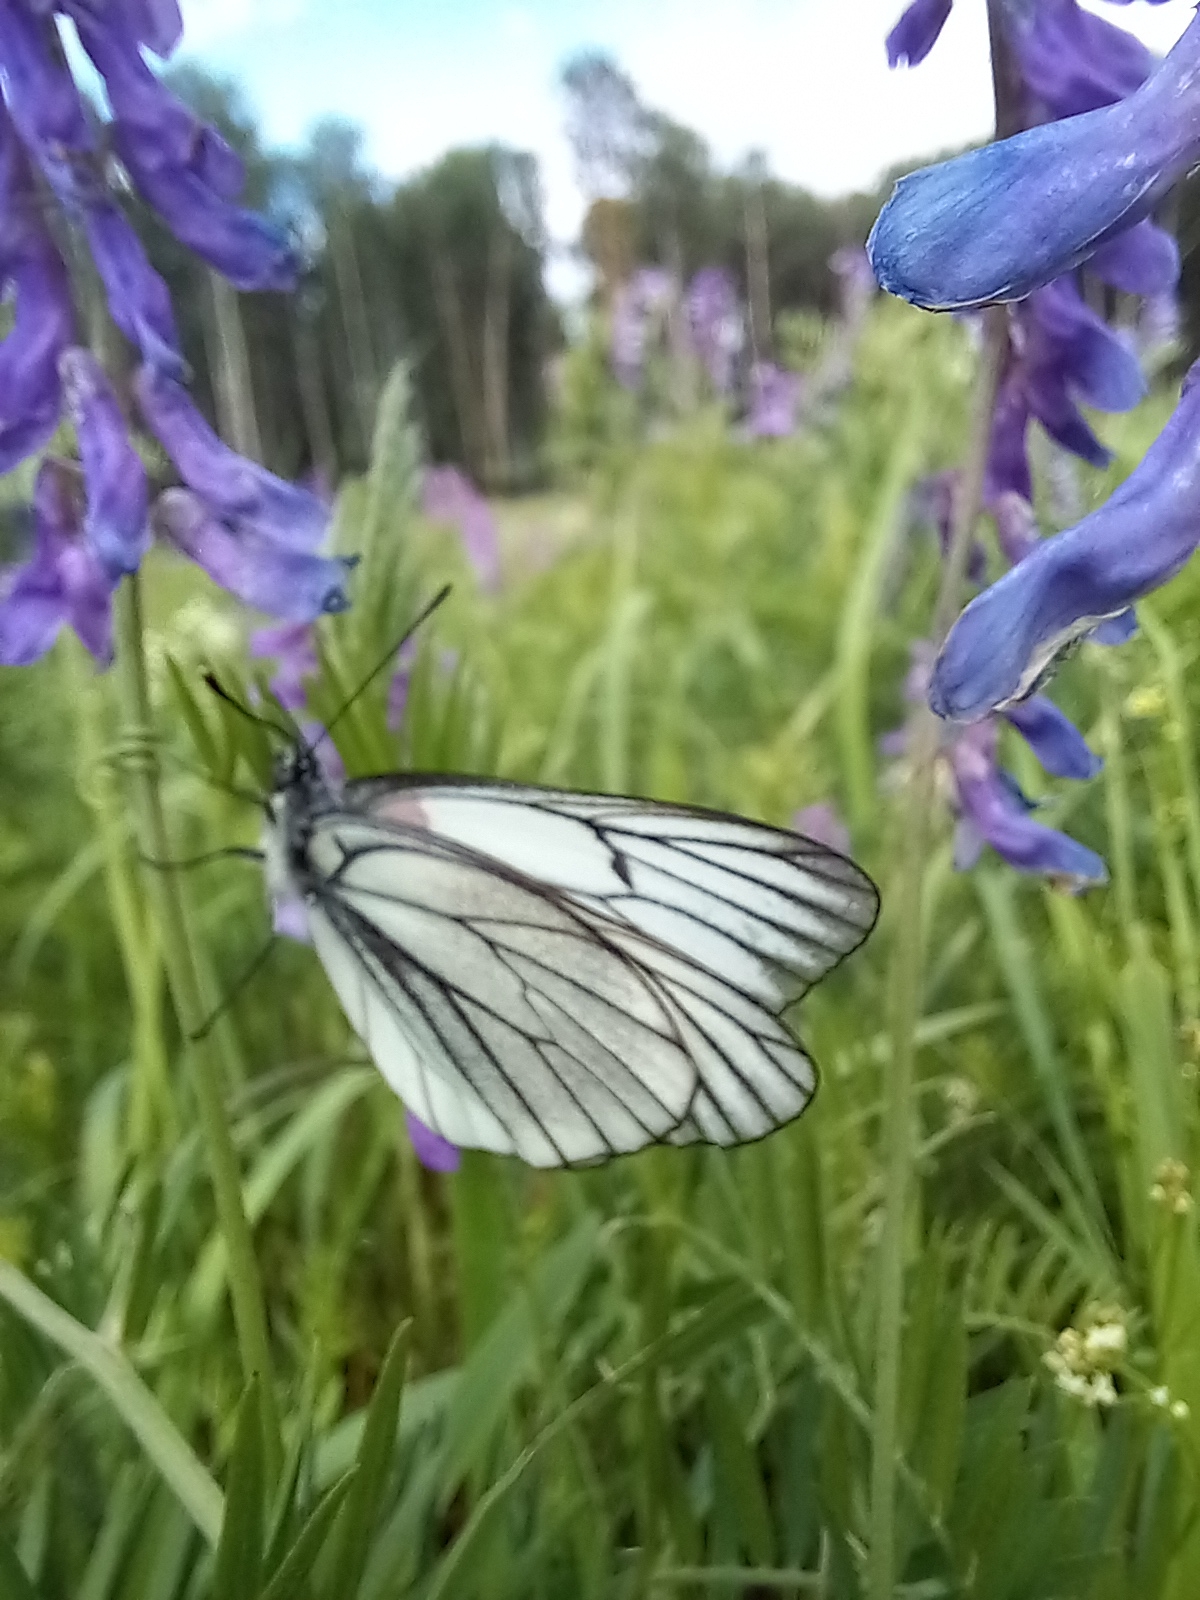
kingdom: Animalia
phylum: Arthropoda
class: Insecta
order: Lepidoptera
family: Pieridae
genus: Aporia
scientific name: Aporia crataegi
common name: Black-veined white
